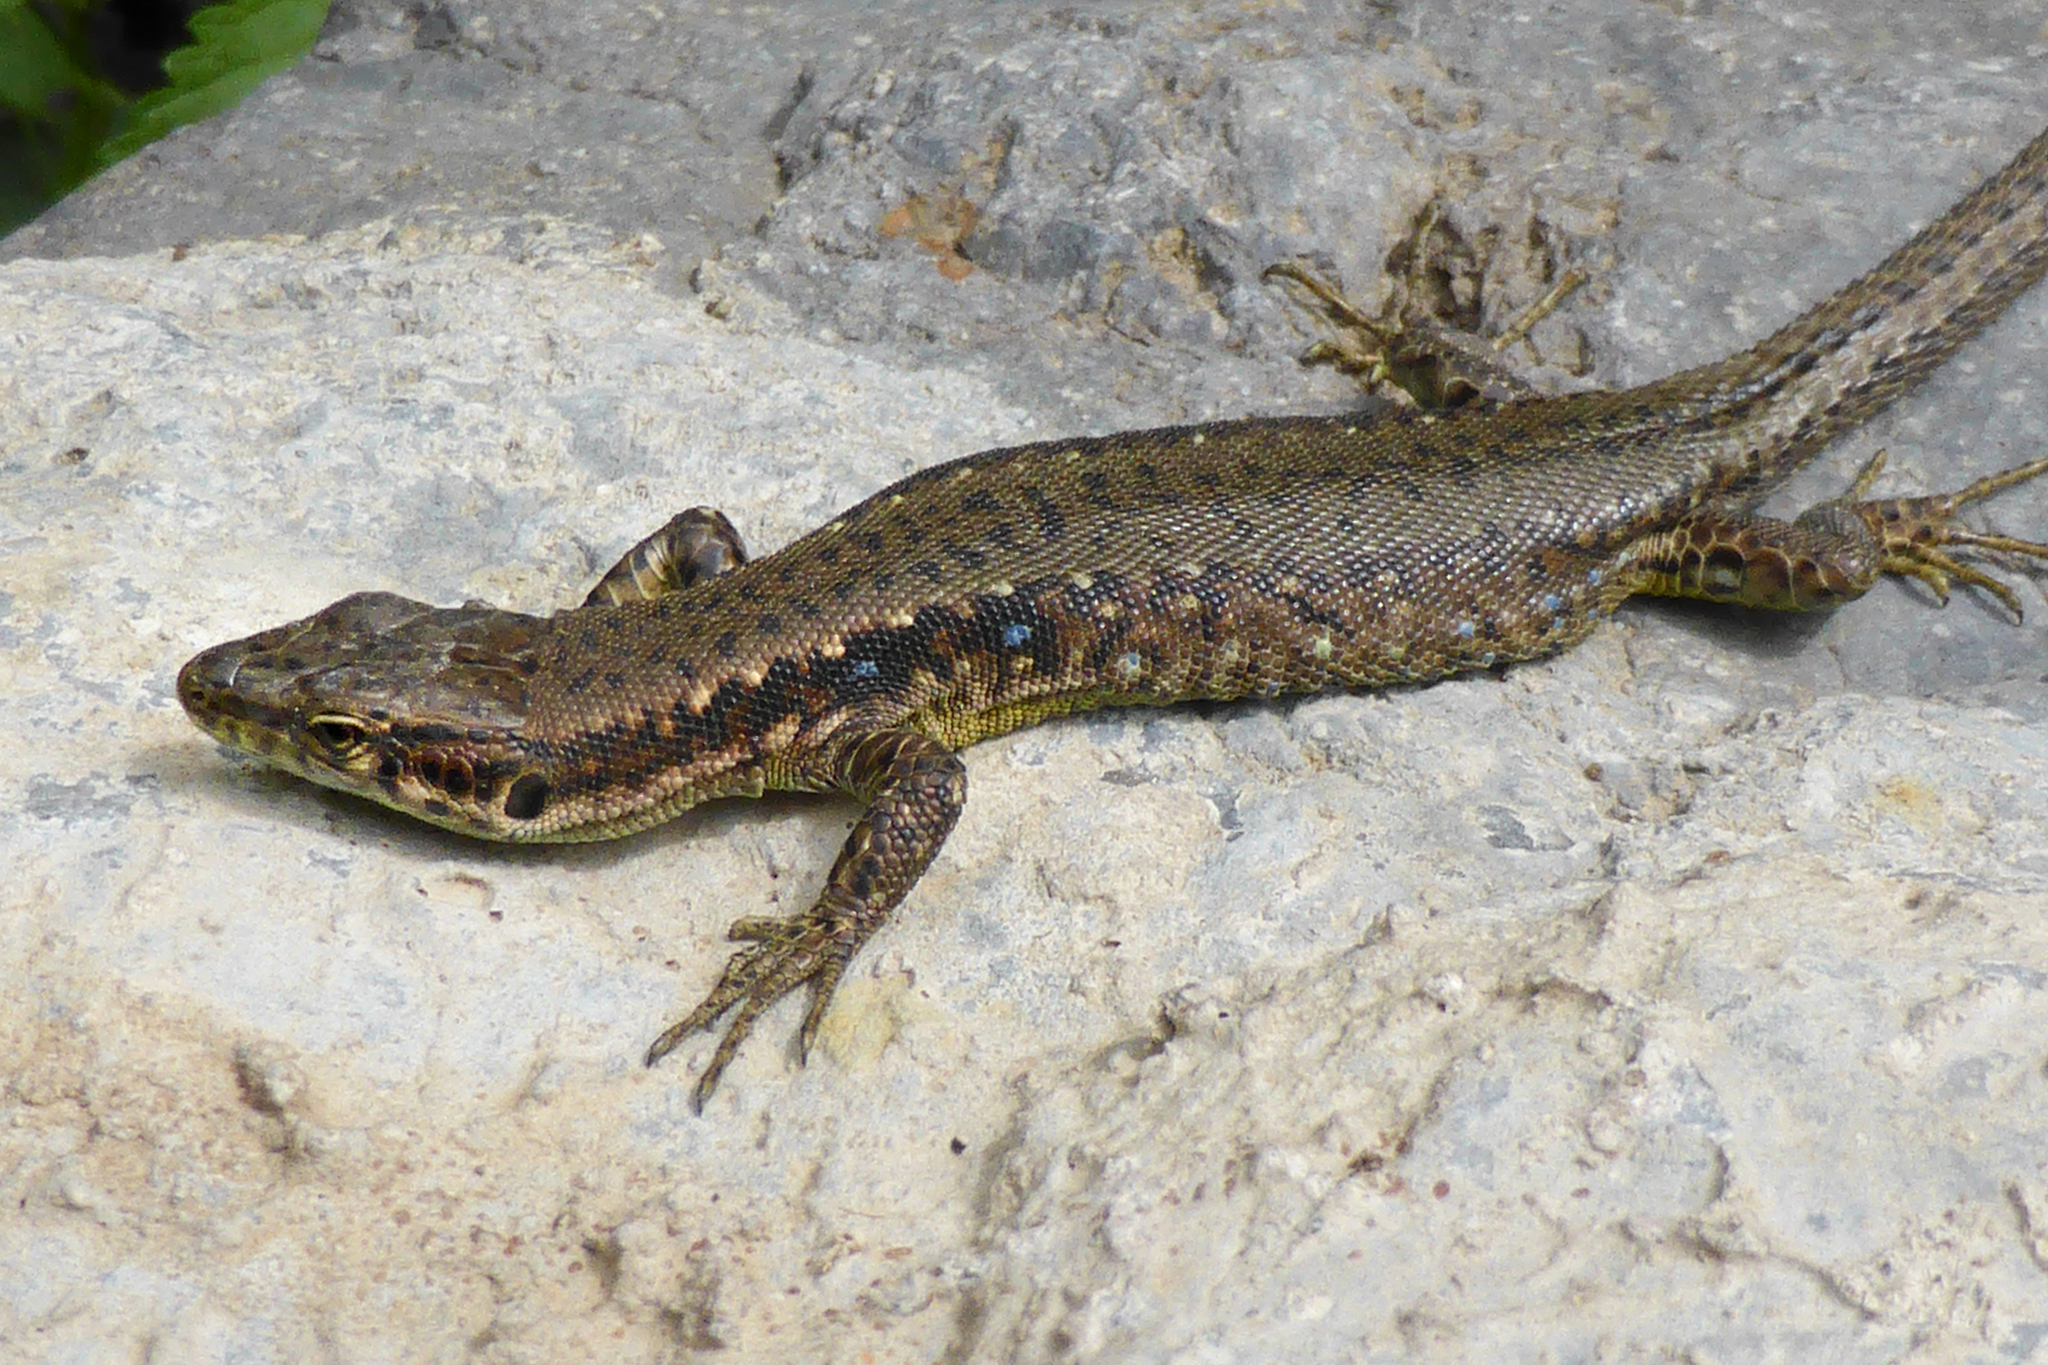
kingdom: Animalia
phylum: Chordata
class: Squamata
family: Lacertidae
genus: Darevskia
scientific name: Darevskia armeniaca
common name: Armenian lizard
